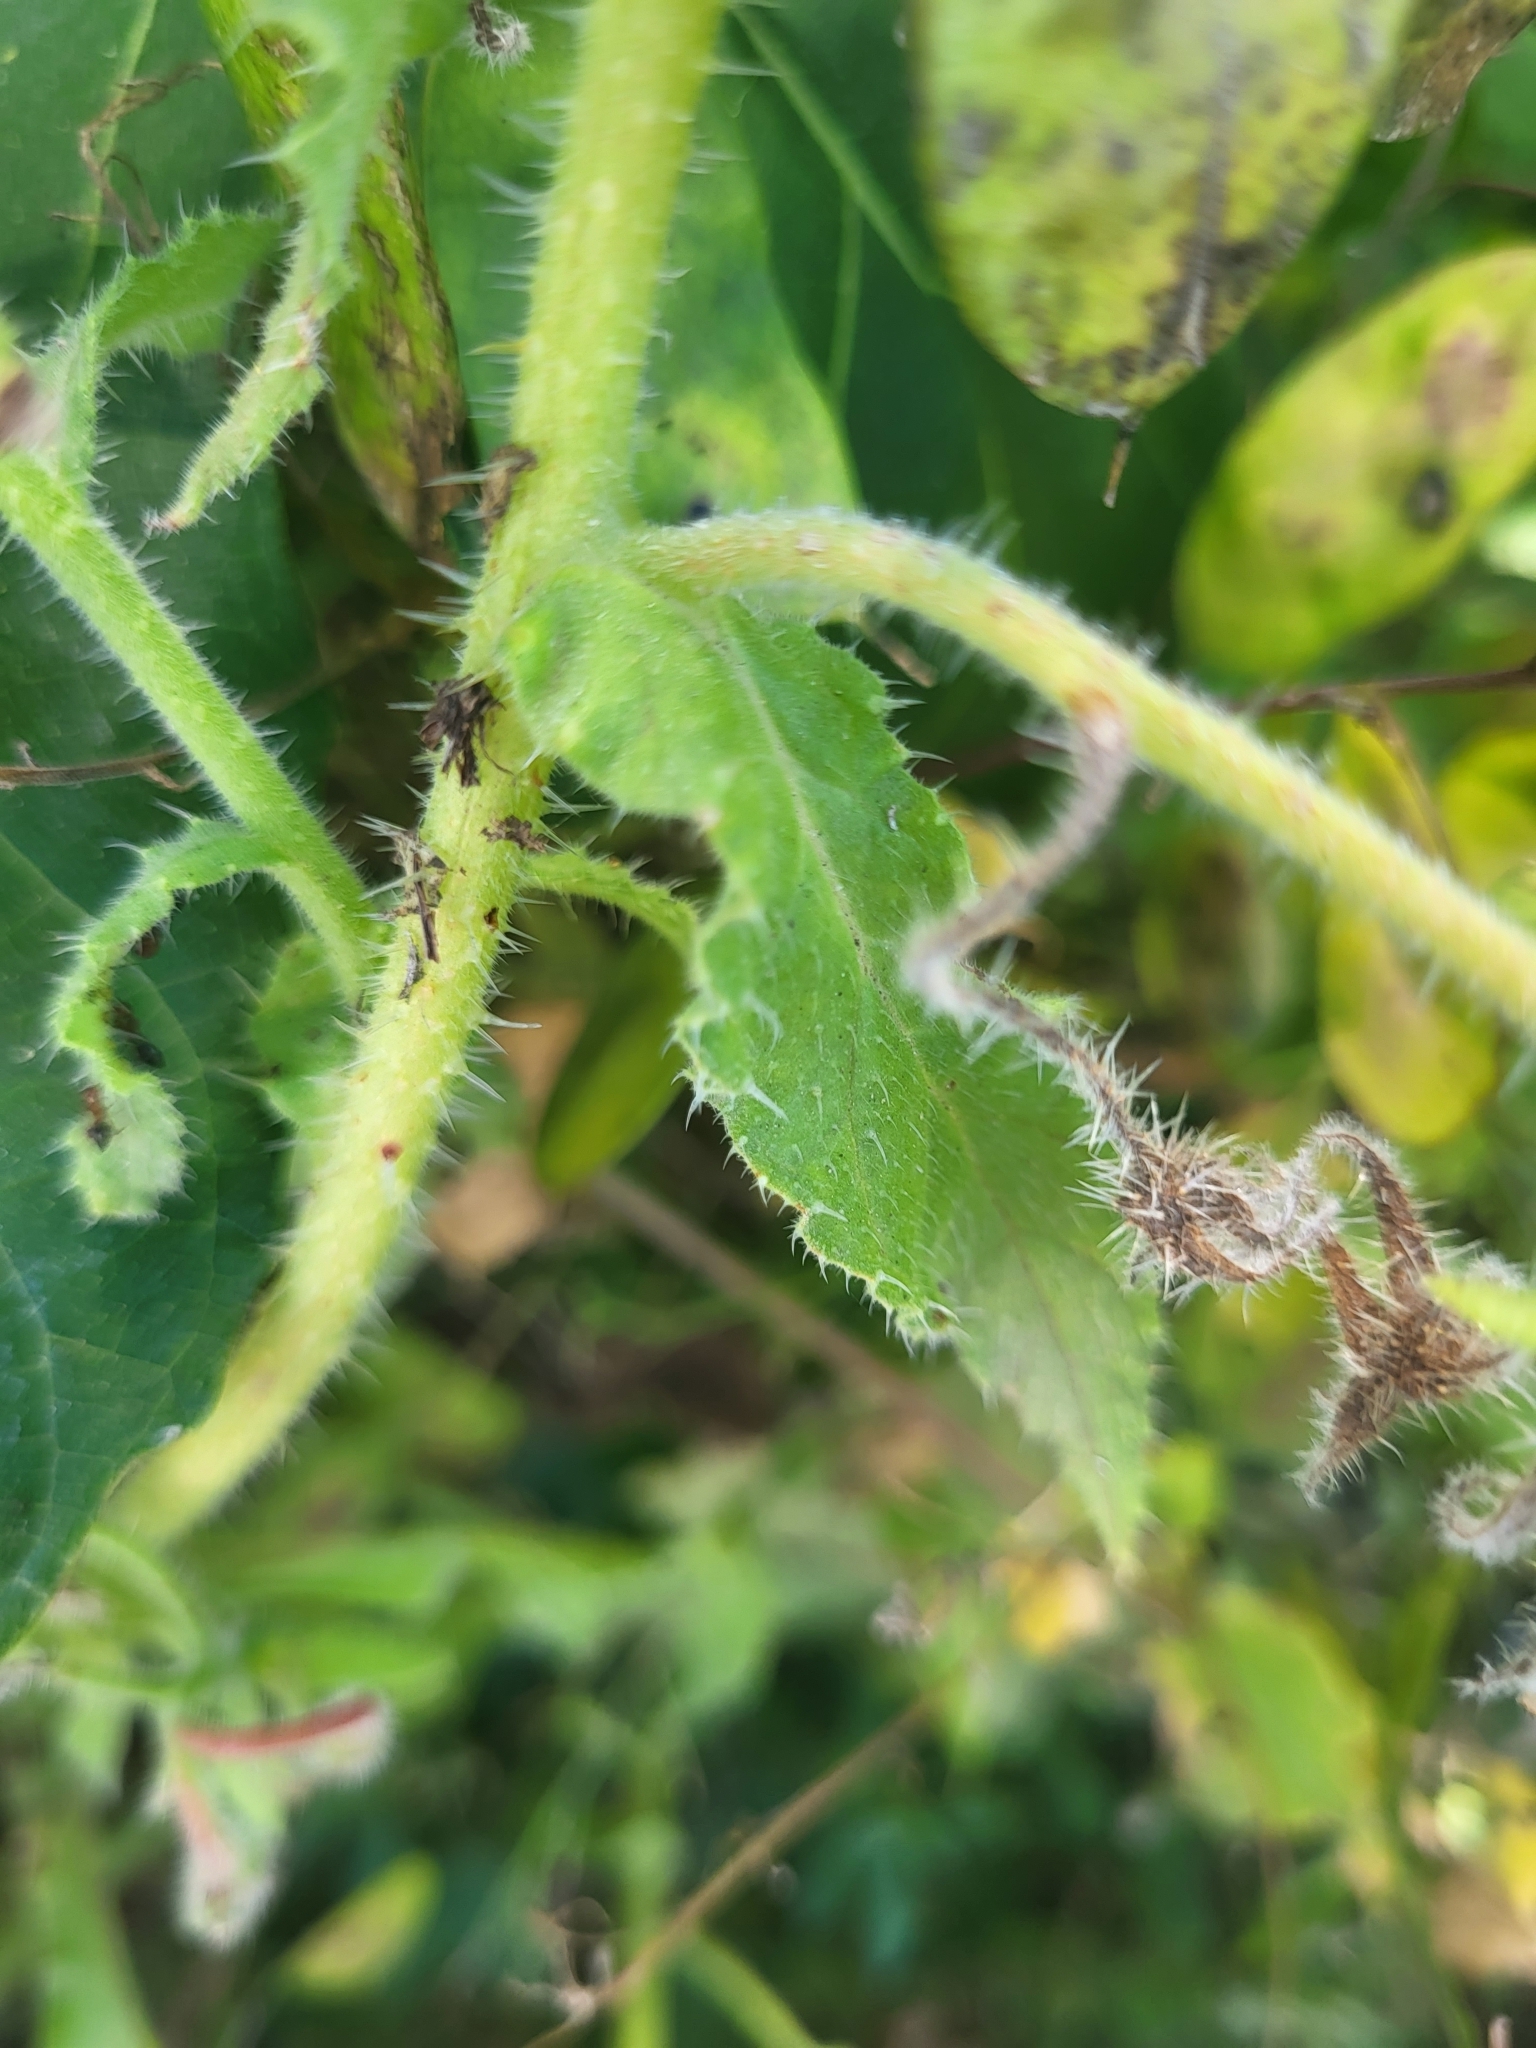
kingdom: Plantae
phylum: Tracheophyta
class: Magnoliopsida
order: Boraginales
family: Boraginaceae
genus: Borago
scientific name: Borago officinalis
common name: Borage
